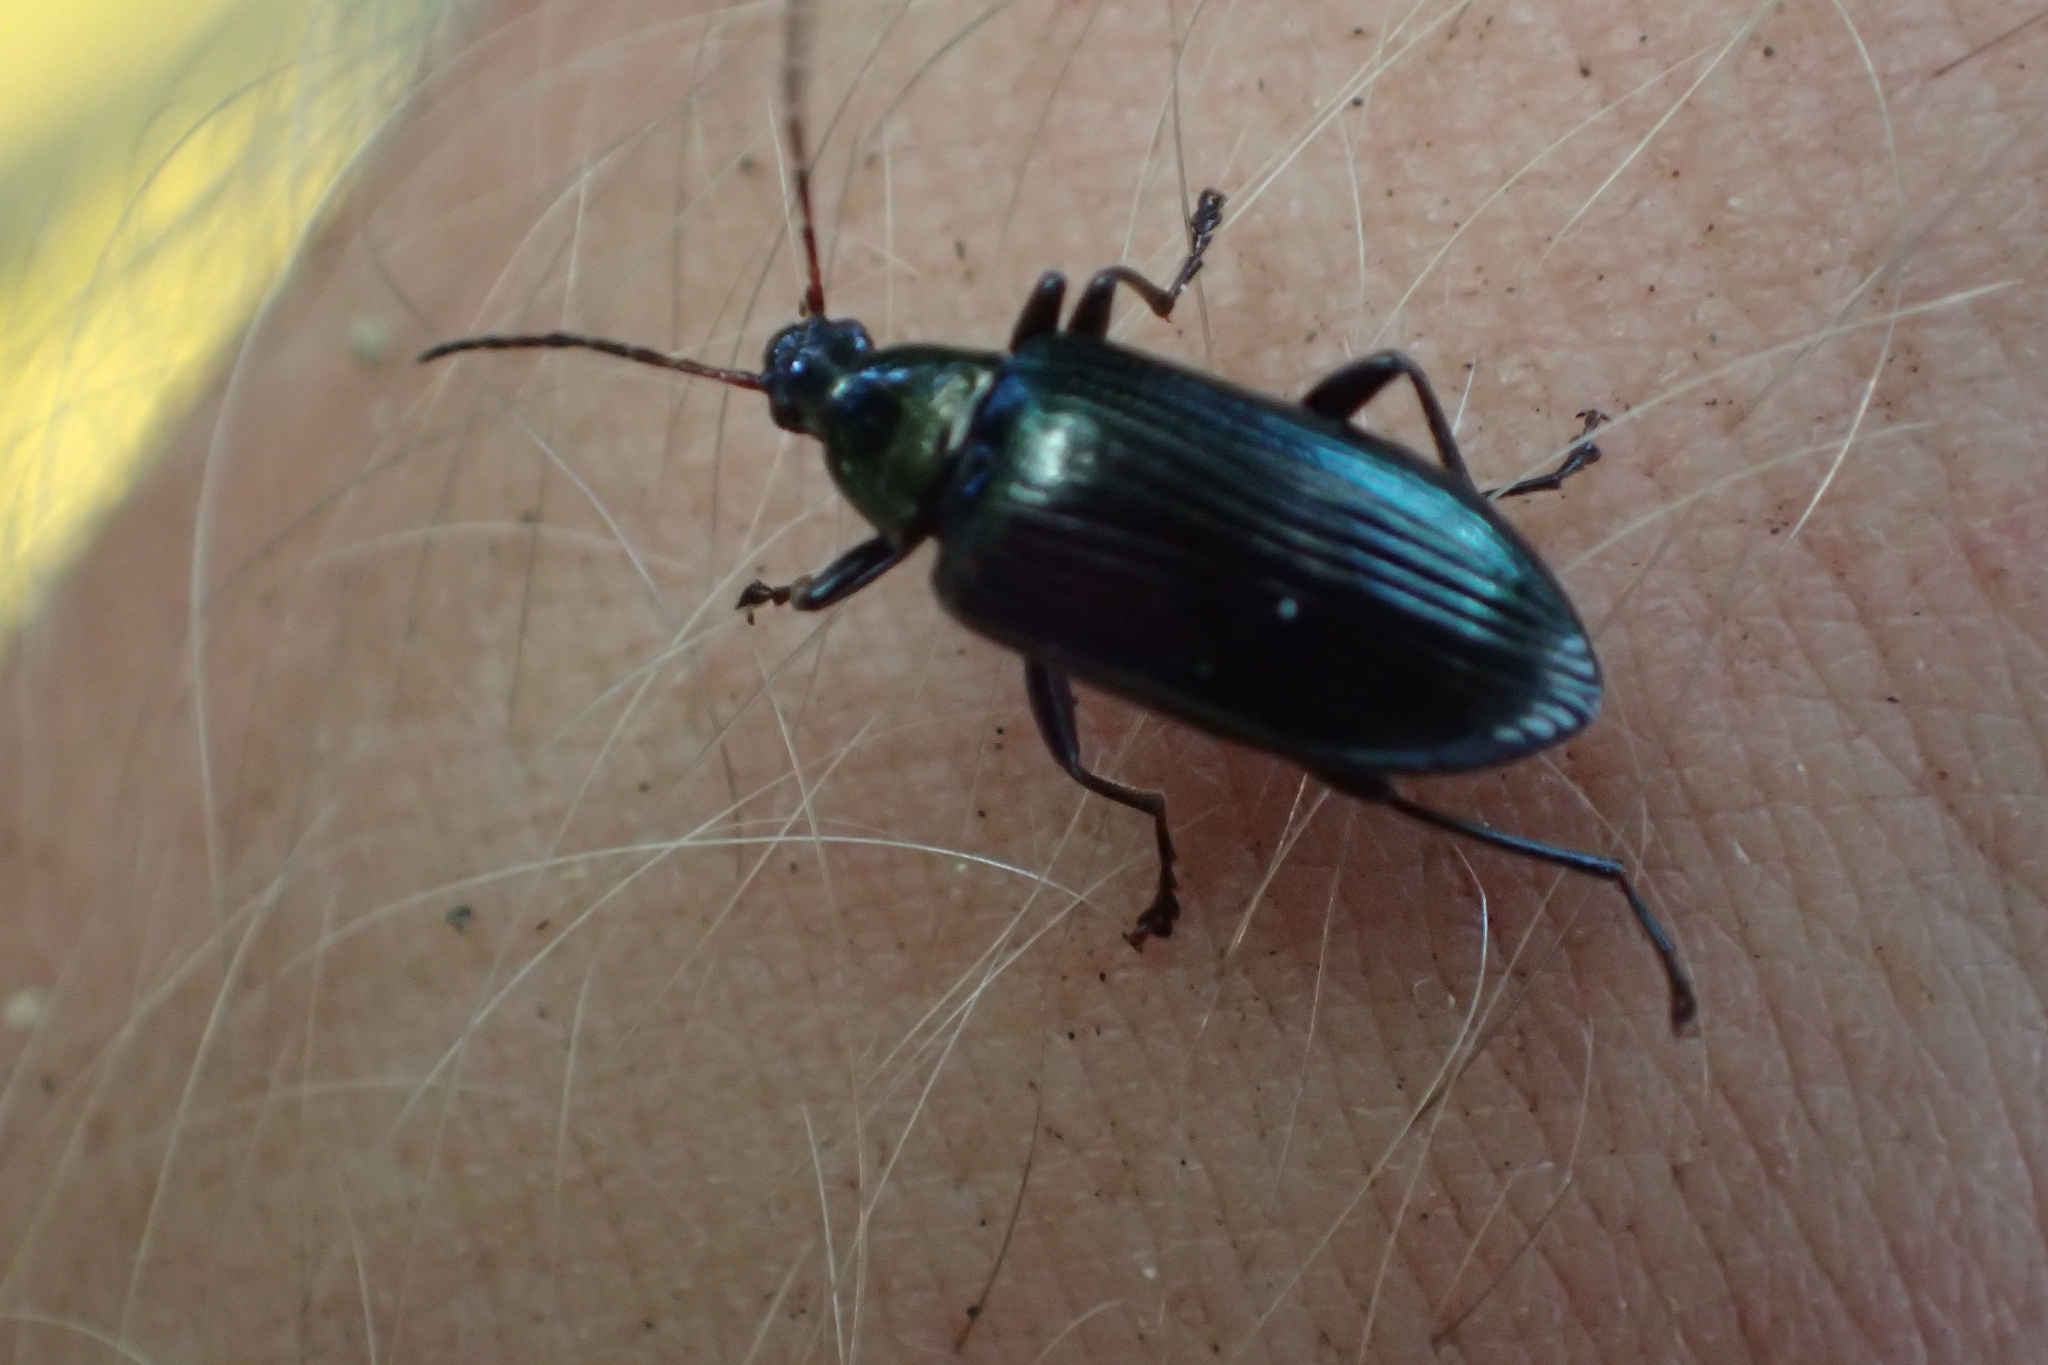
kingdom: Animalia
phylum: Arthropoda
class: Insecta
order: Coleoptera
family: Tenebrionidae
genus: Tanychilus
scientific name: Tanychilus
